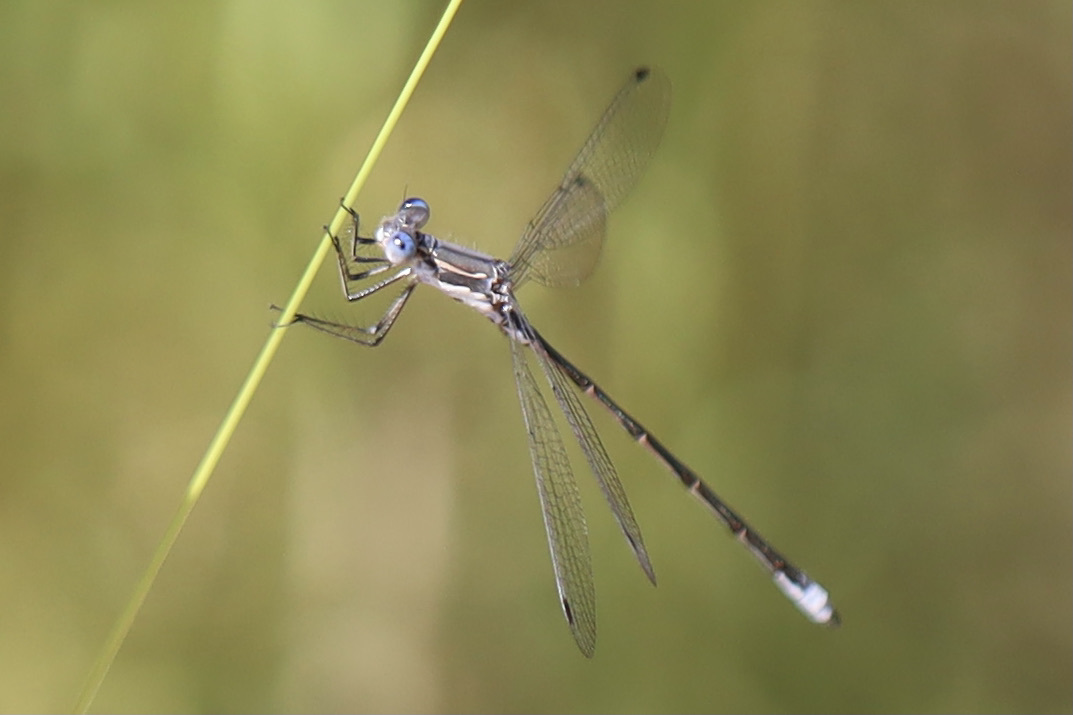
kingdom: Animalia
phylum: Arthropoda
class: Insecta
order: Odonata
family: Lestidae
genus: Lestes
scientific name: Lestes congener
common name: Spotted spreadwing
